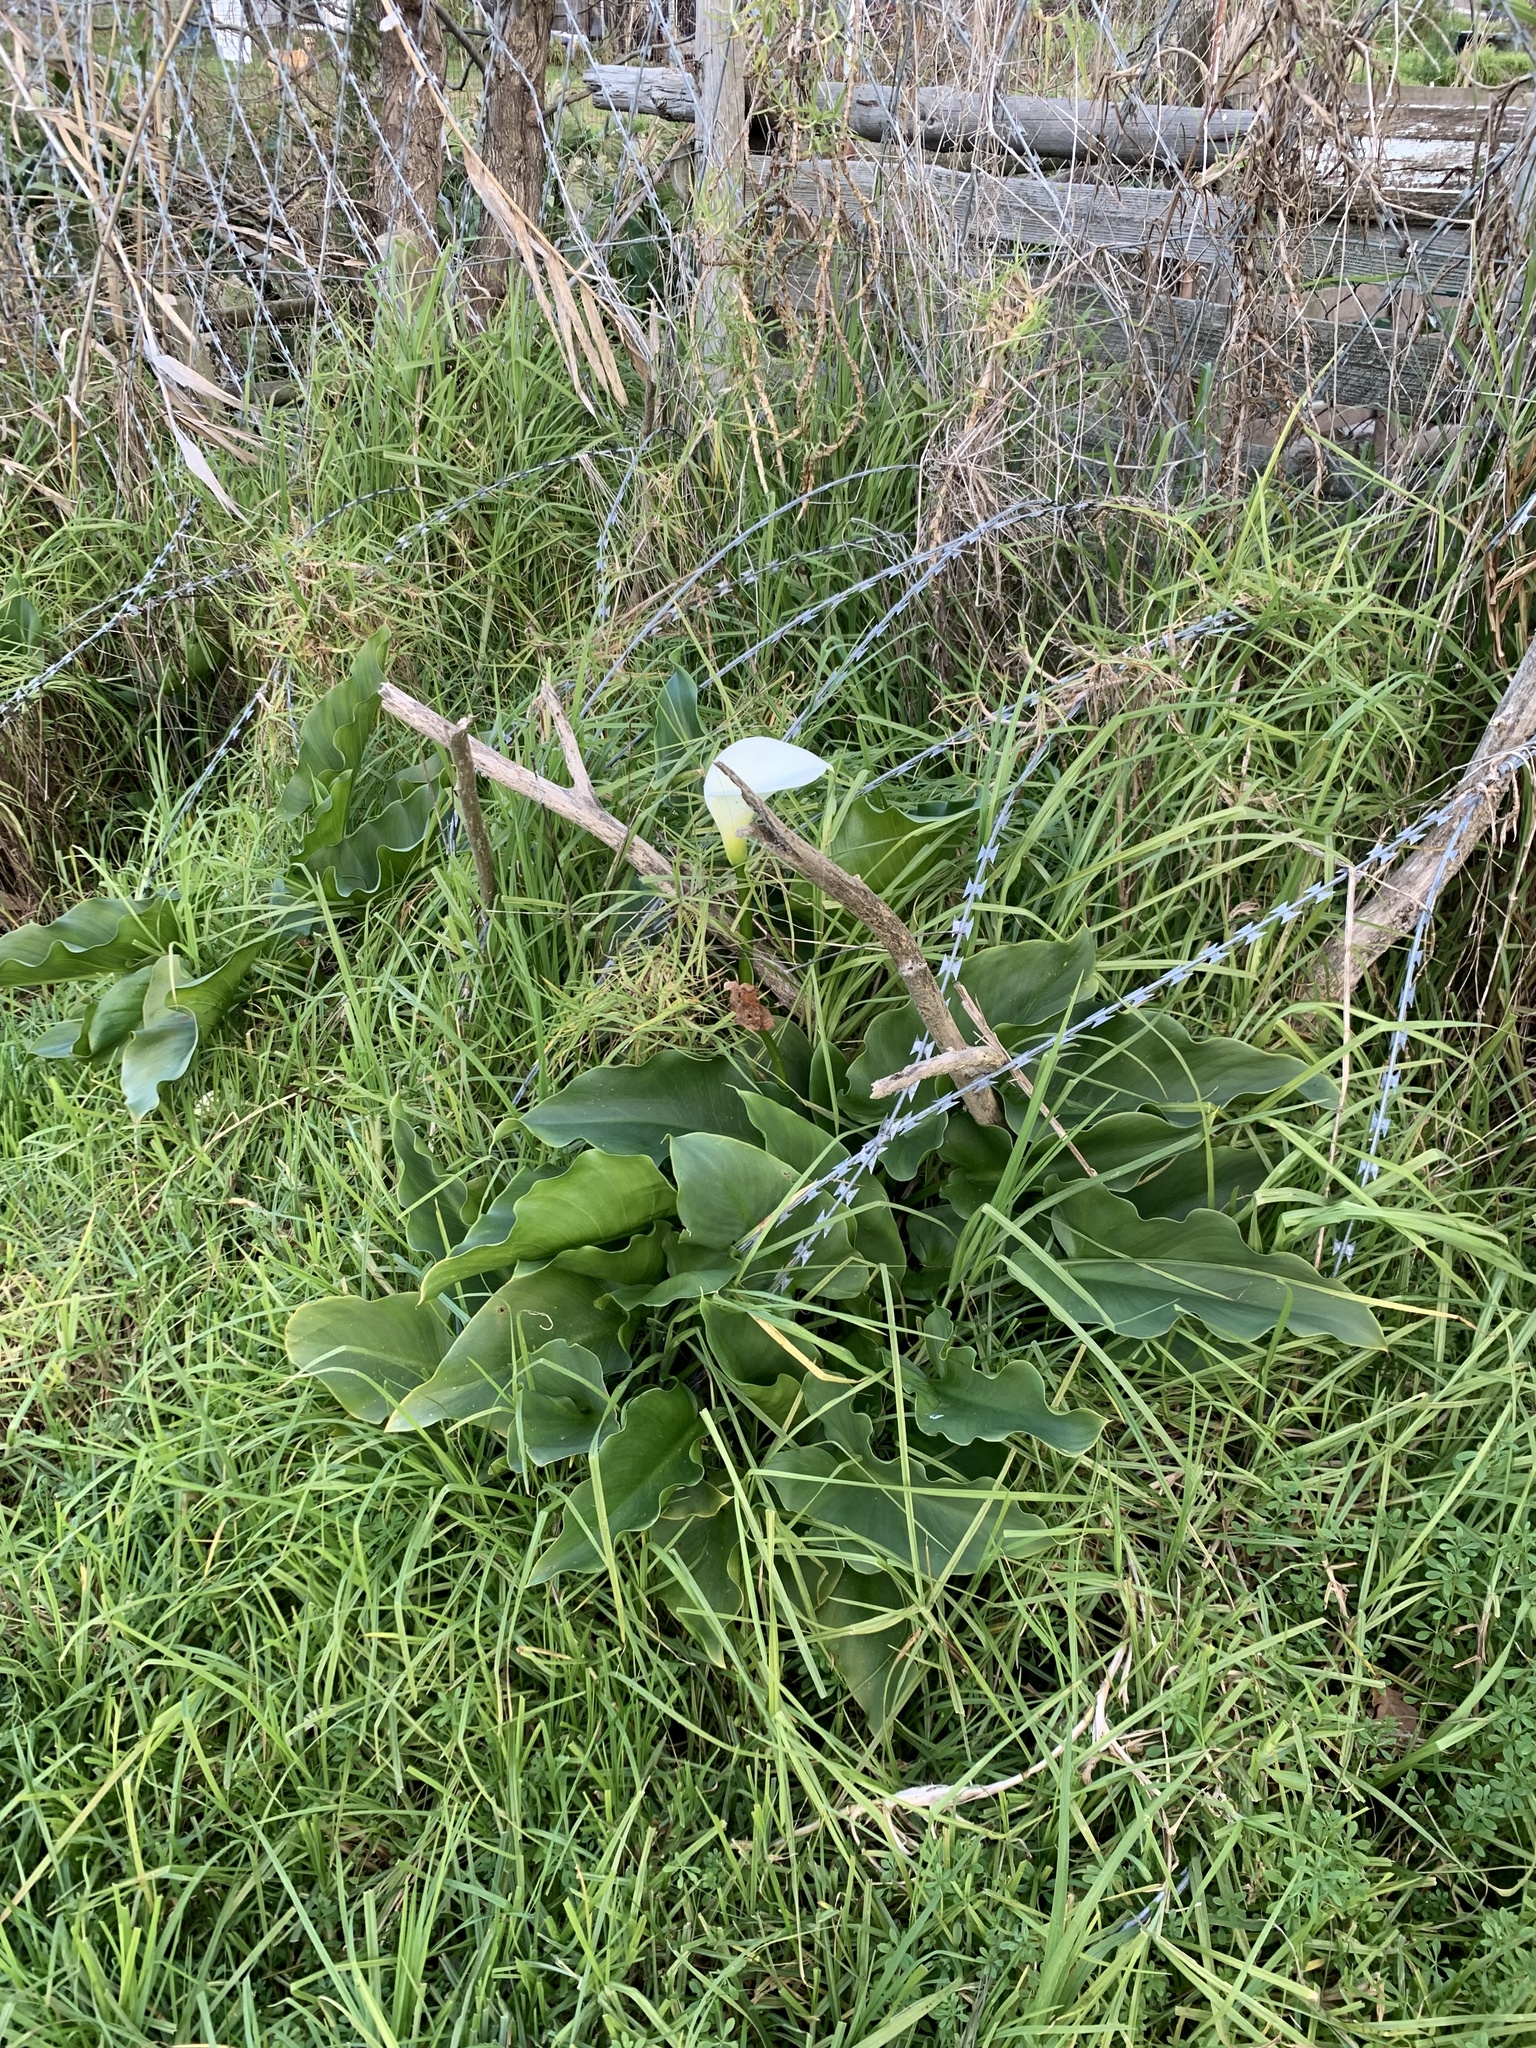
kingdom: Plantae
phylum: Tracheophyta
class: Liliopsida
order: Alismatales
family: Araceae
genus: Zantedeschia
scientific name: Zantedeschia aethiopica
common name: Altar-lily
